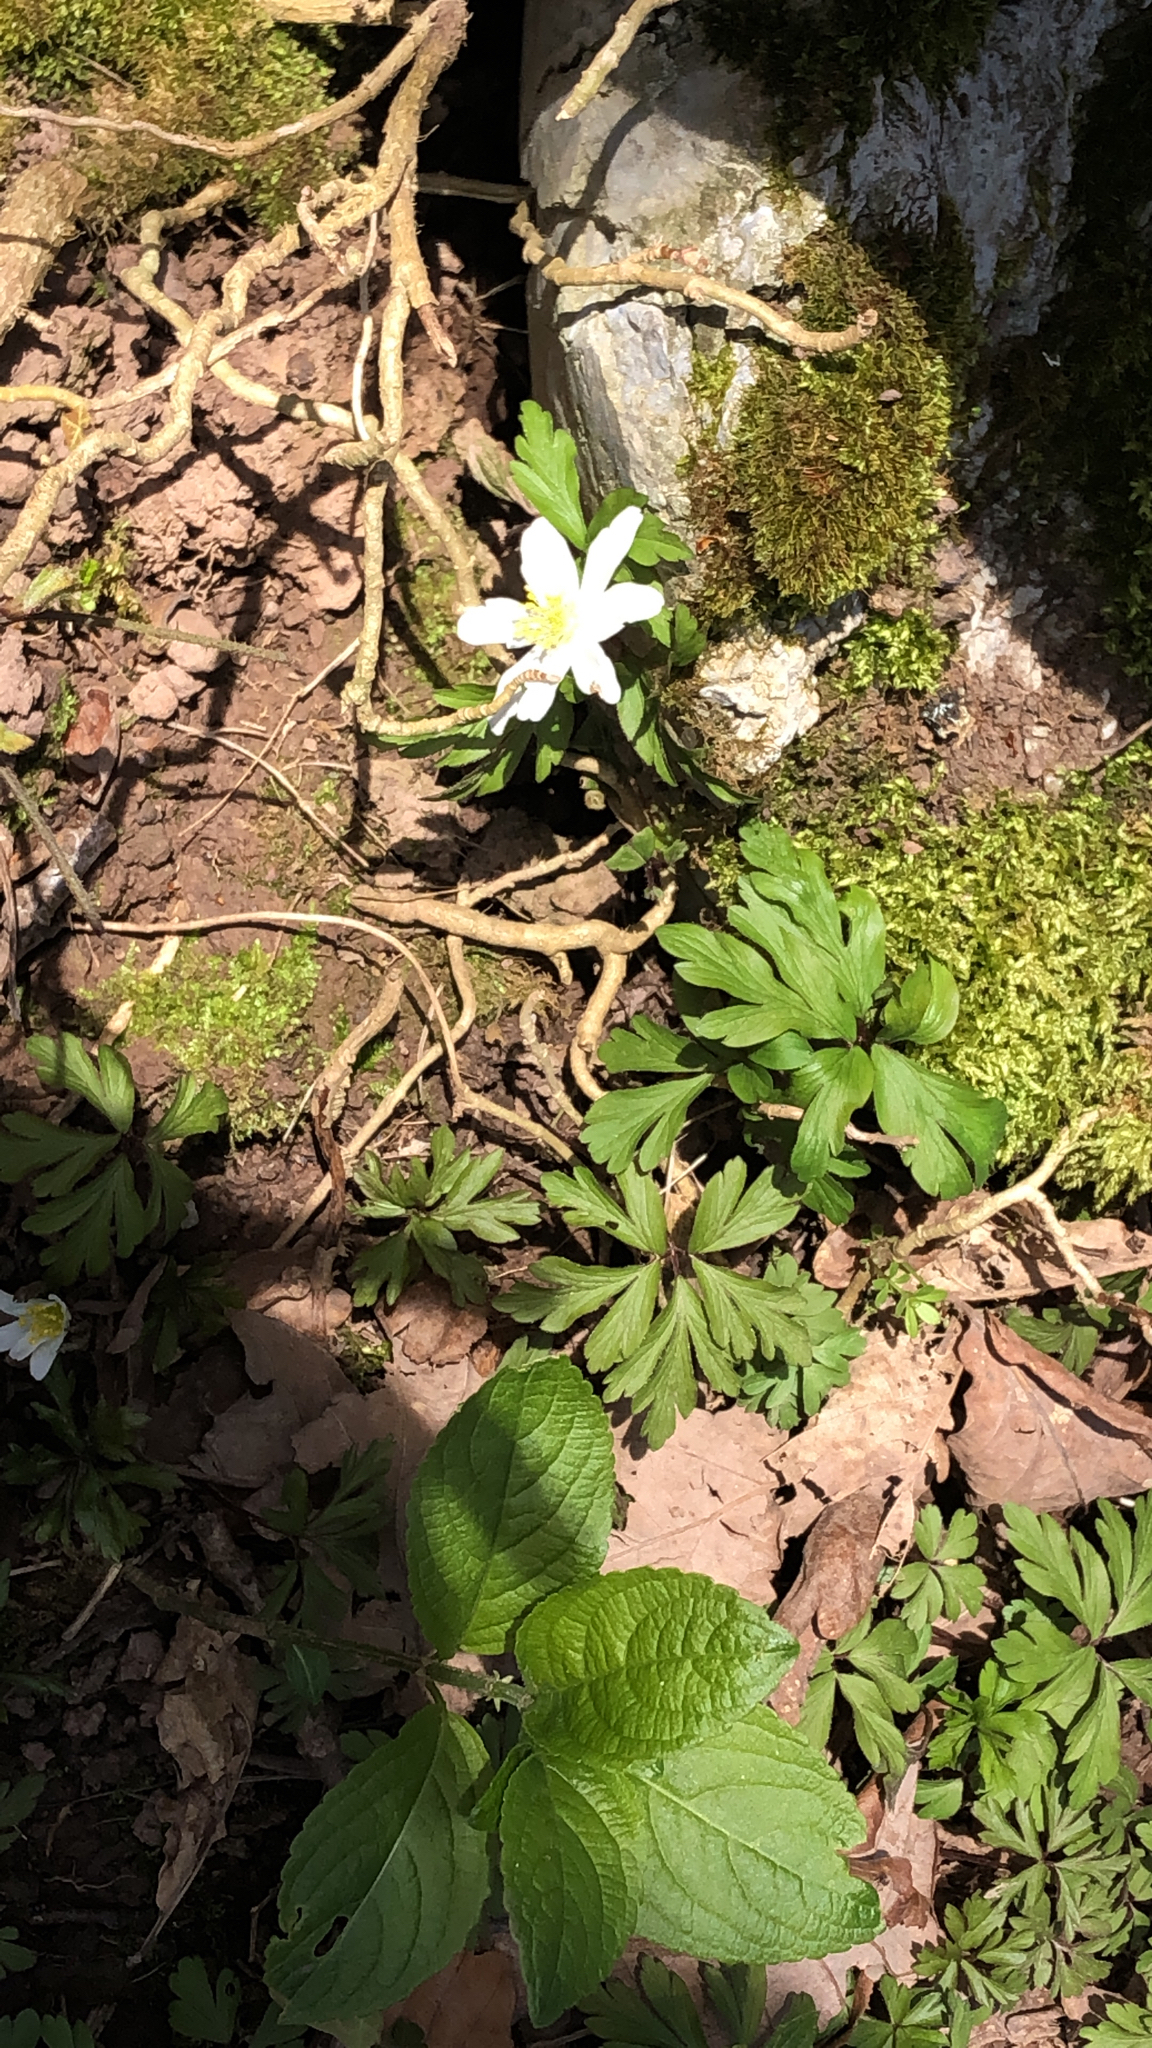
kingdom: Plantae
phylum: Tracheophyta
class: Magnoliopsida
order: Ranunculales
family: Ranunculaceae
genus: Anemone
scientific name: Anemone nemorosa
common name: Wood anemone
